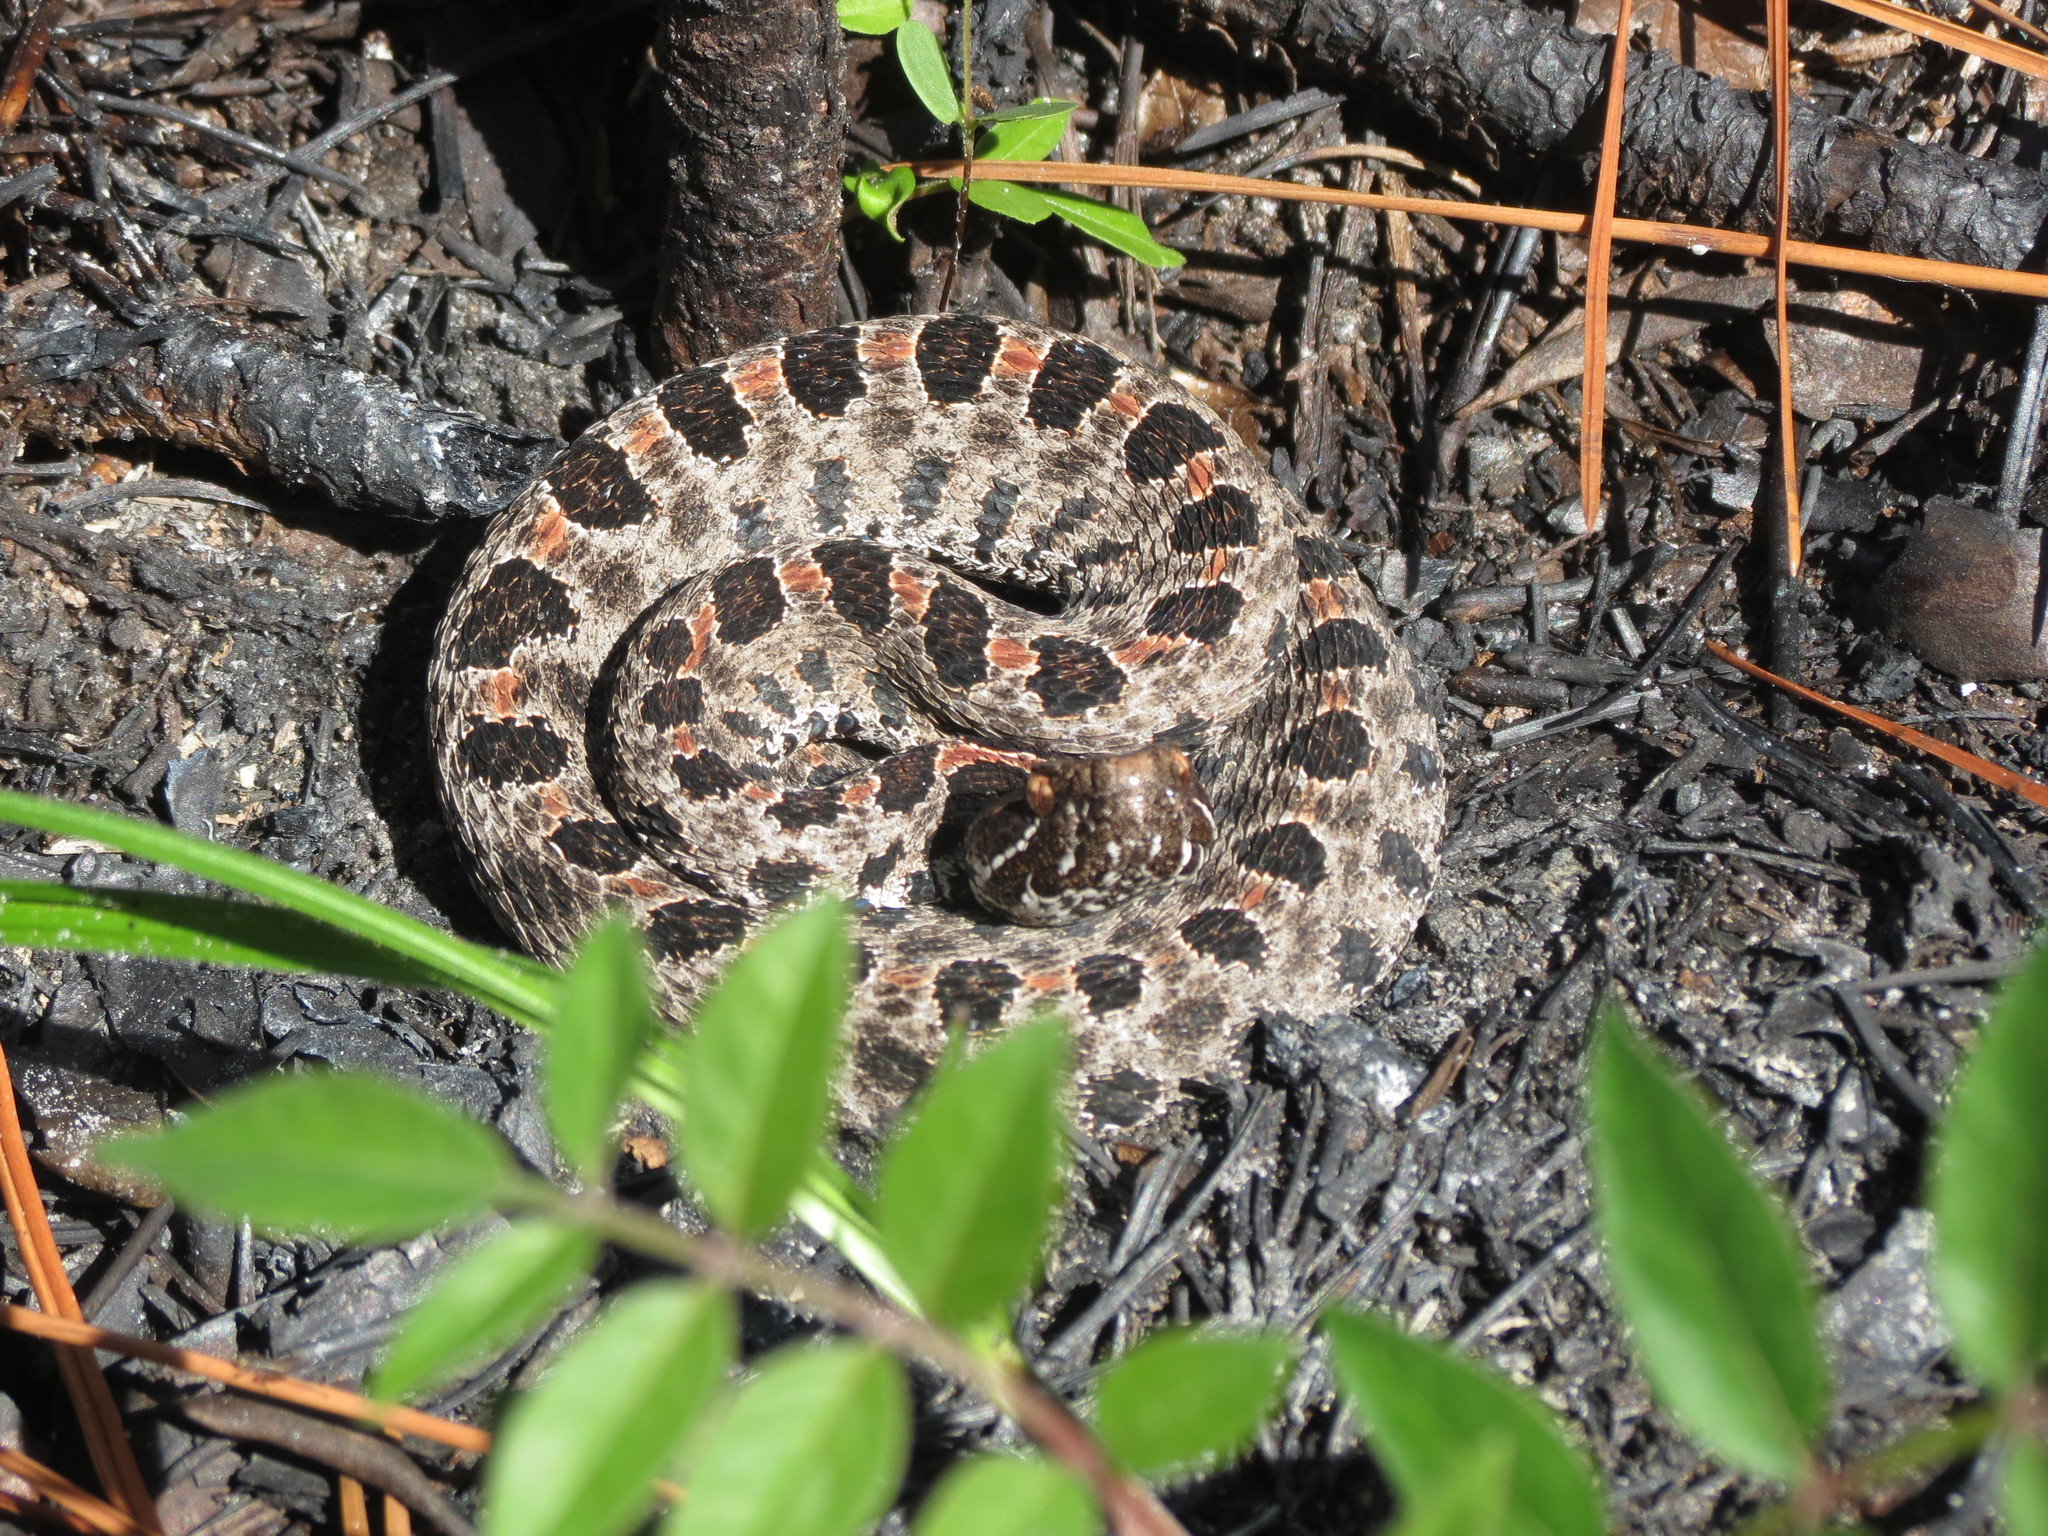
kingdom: Animalia
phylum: Chordata
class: Squamata
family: Viperidae
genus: Sistrurus
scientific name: Sistrurus miliarius
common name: Pygmy rattlesnake
